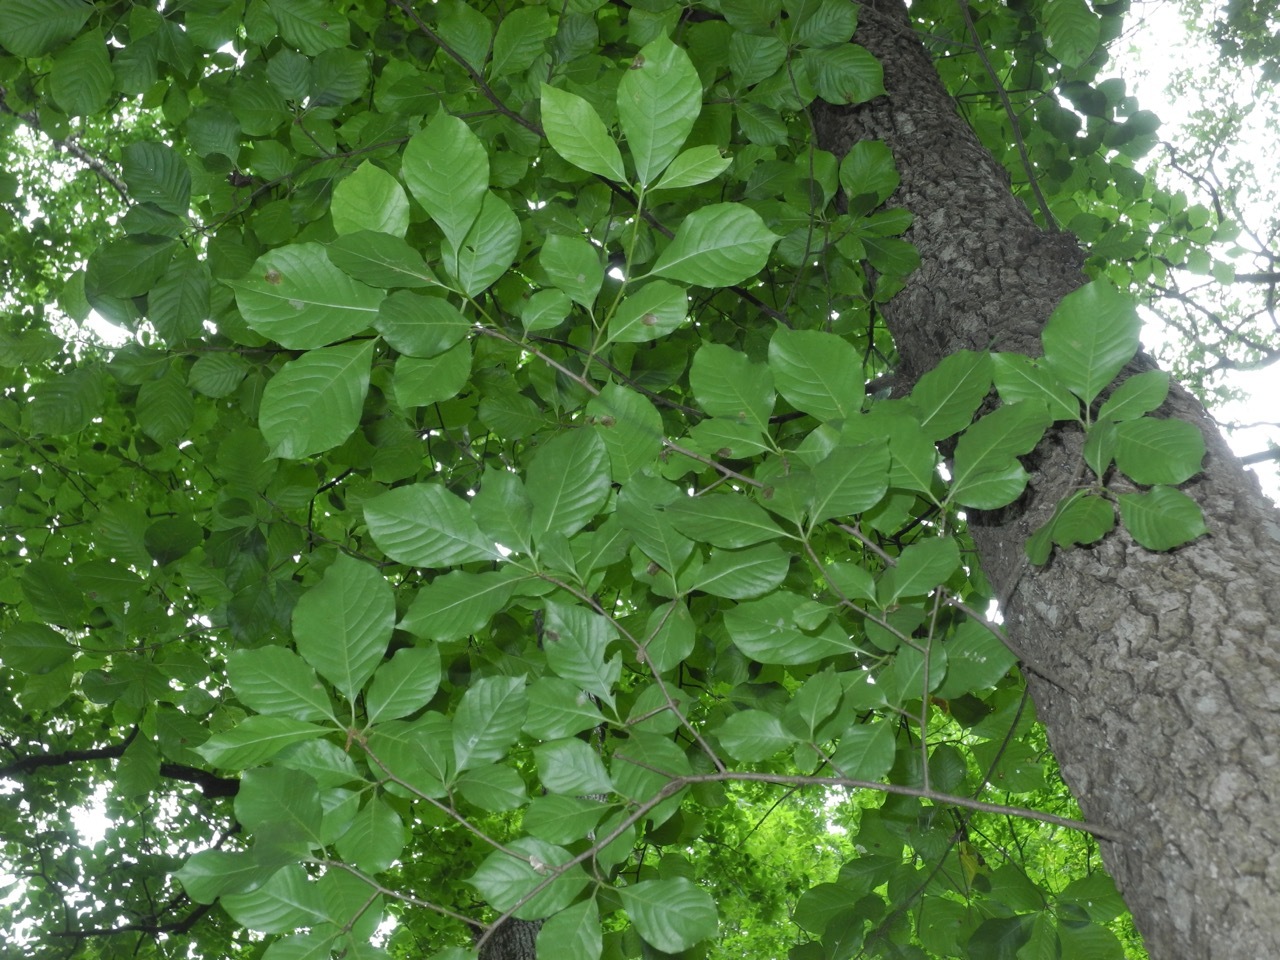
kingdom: Plantae
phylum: Tracheophyta
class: Magnoliopsida
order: Cornales
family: Nyssaceae
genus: Nyssa
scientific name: Nyssa sylvatica
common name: Black tupelo
